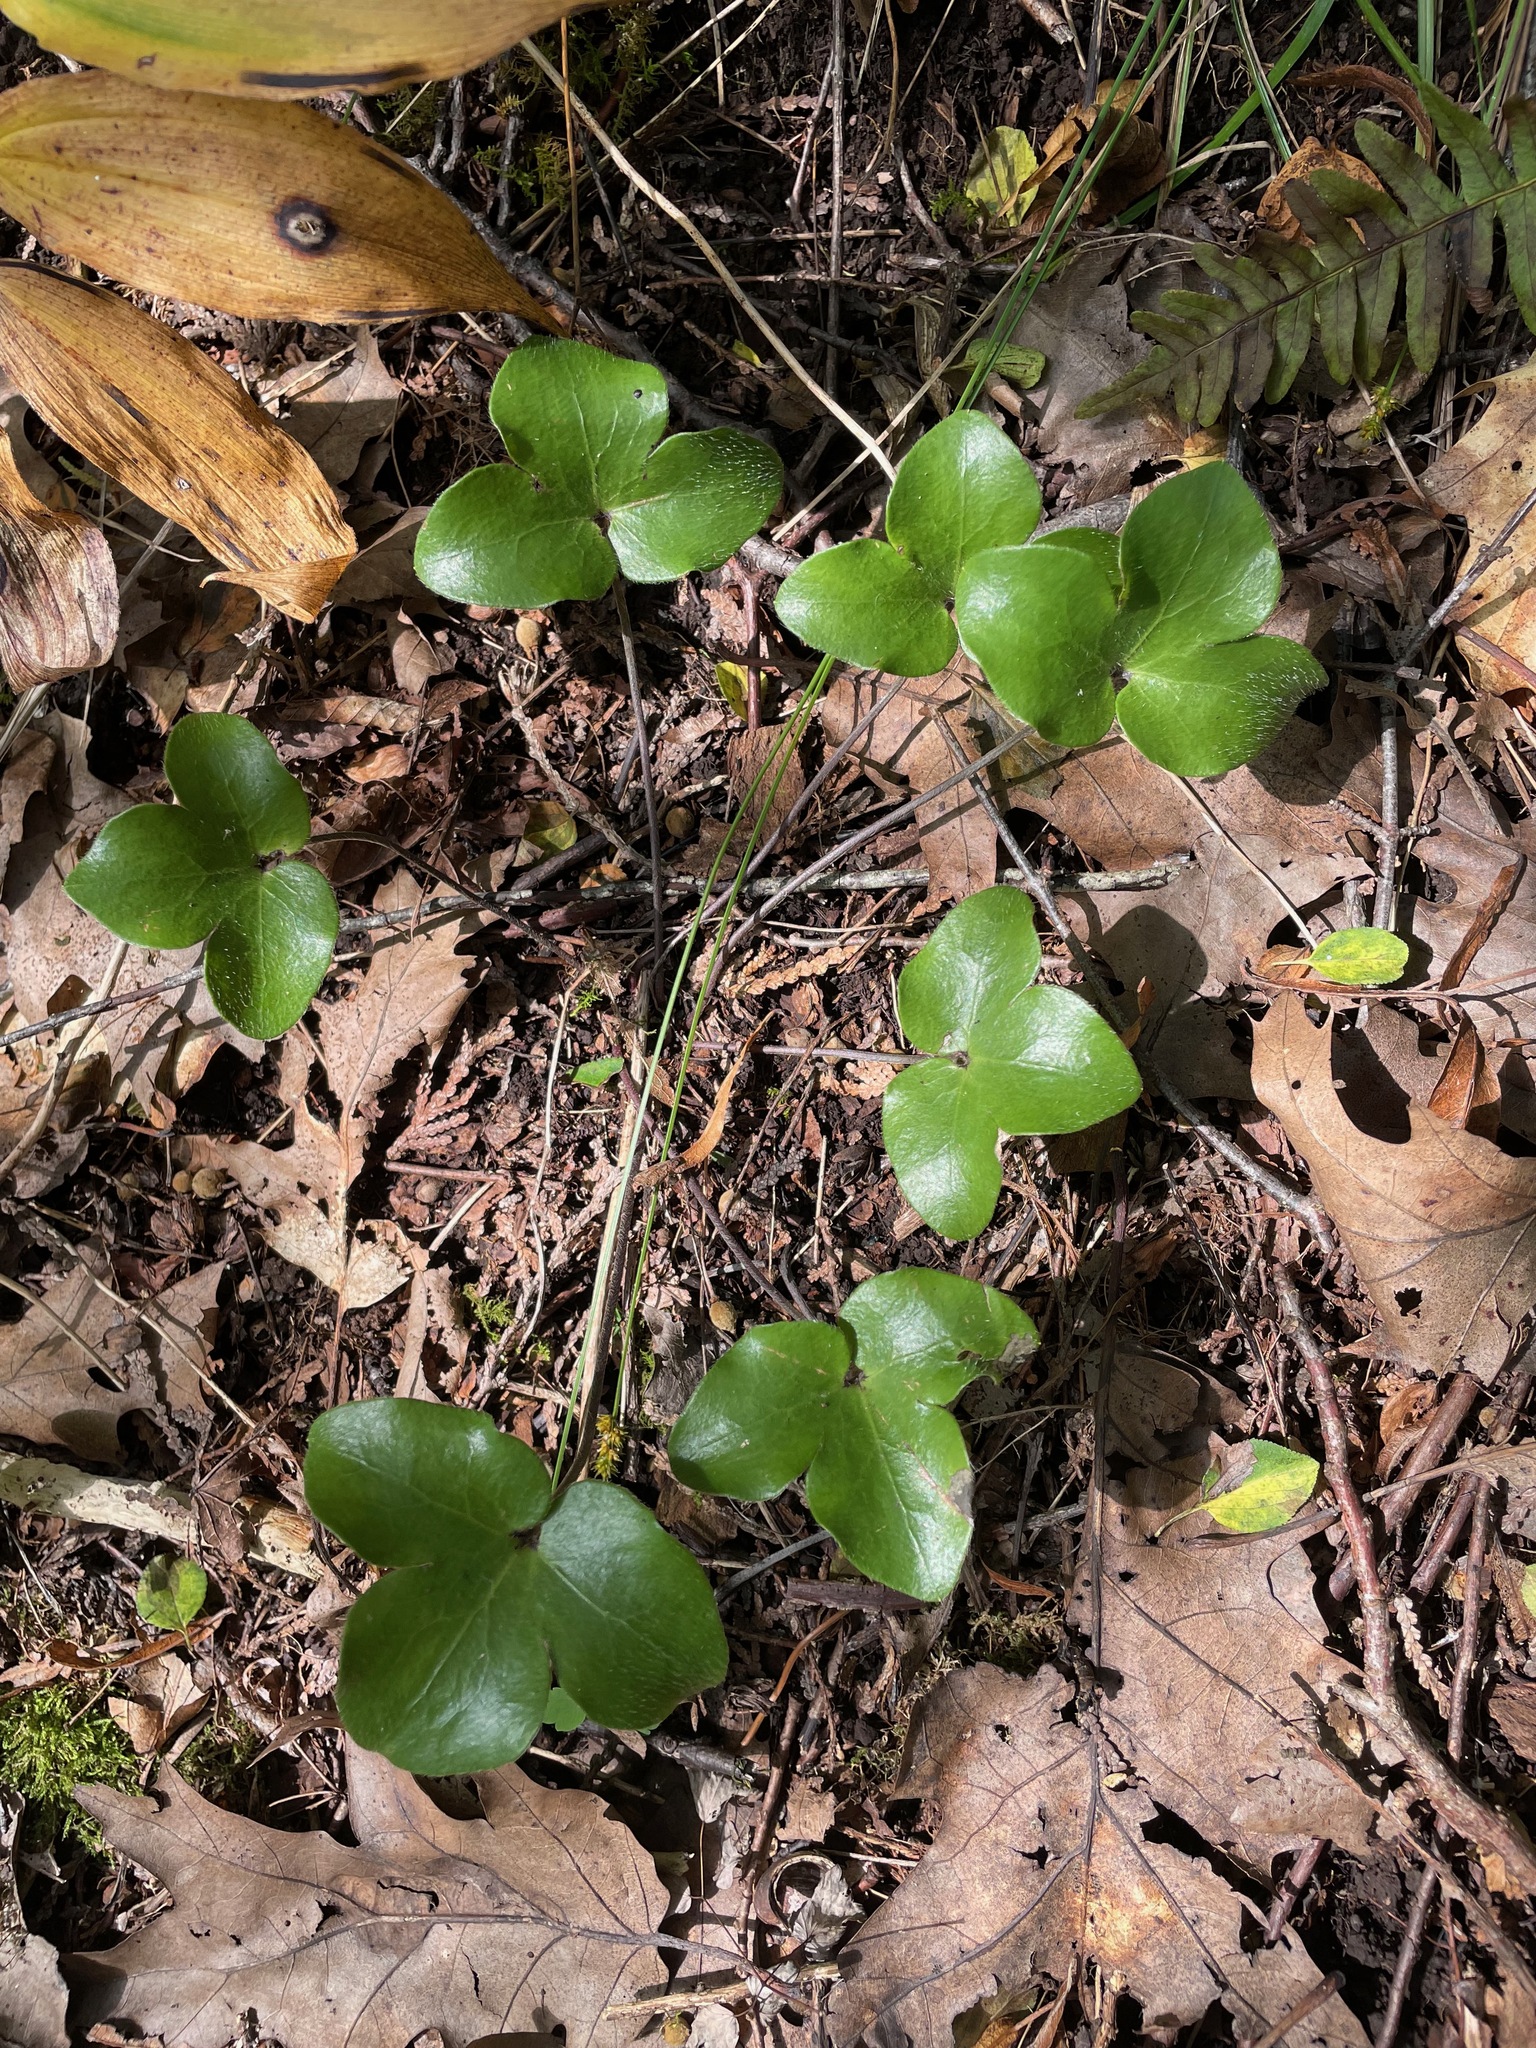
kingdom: Plantae
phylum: Tracheophyta
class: Magnoliopsida
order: Ranunculales
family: Ranunculaceae
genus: Hepatica
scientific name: Hepatica americana
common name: American hepatica
